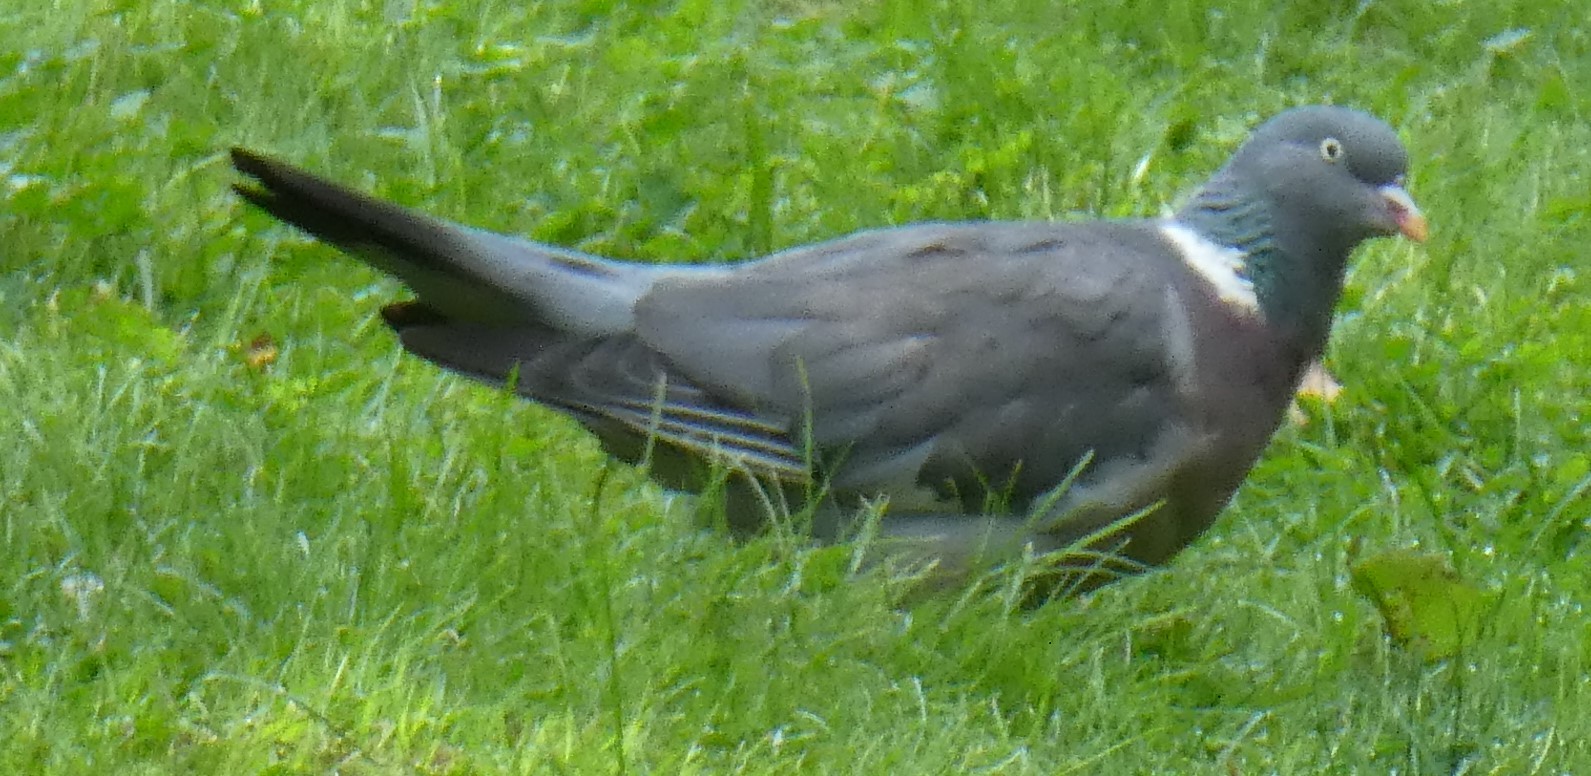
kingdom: Animalia
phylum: Chordata
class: Aves
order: Columbiformes
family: Columbidae
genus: Columba
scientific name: Columba palumbus
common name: Common wood pigeon
